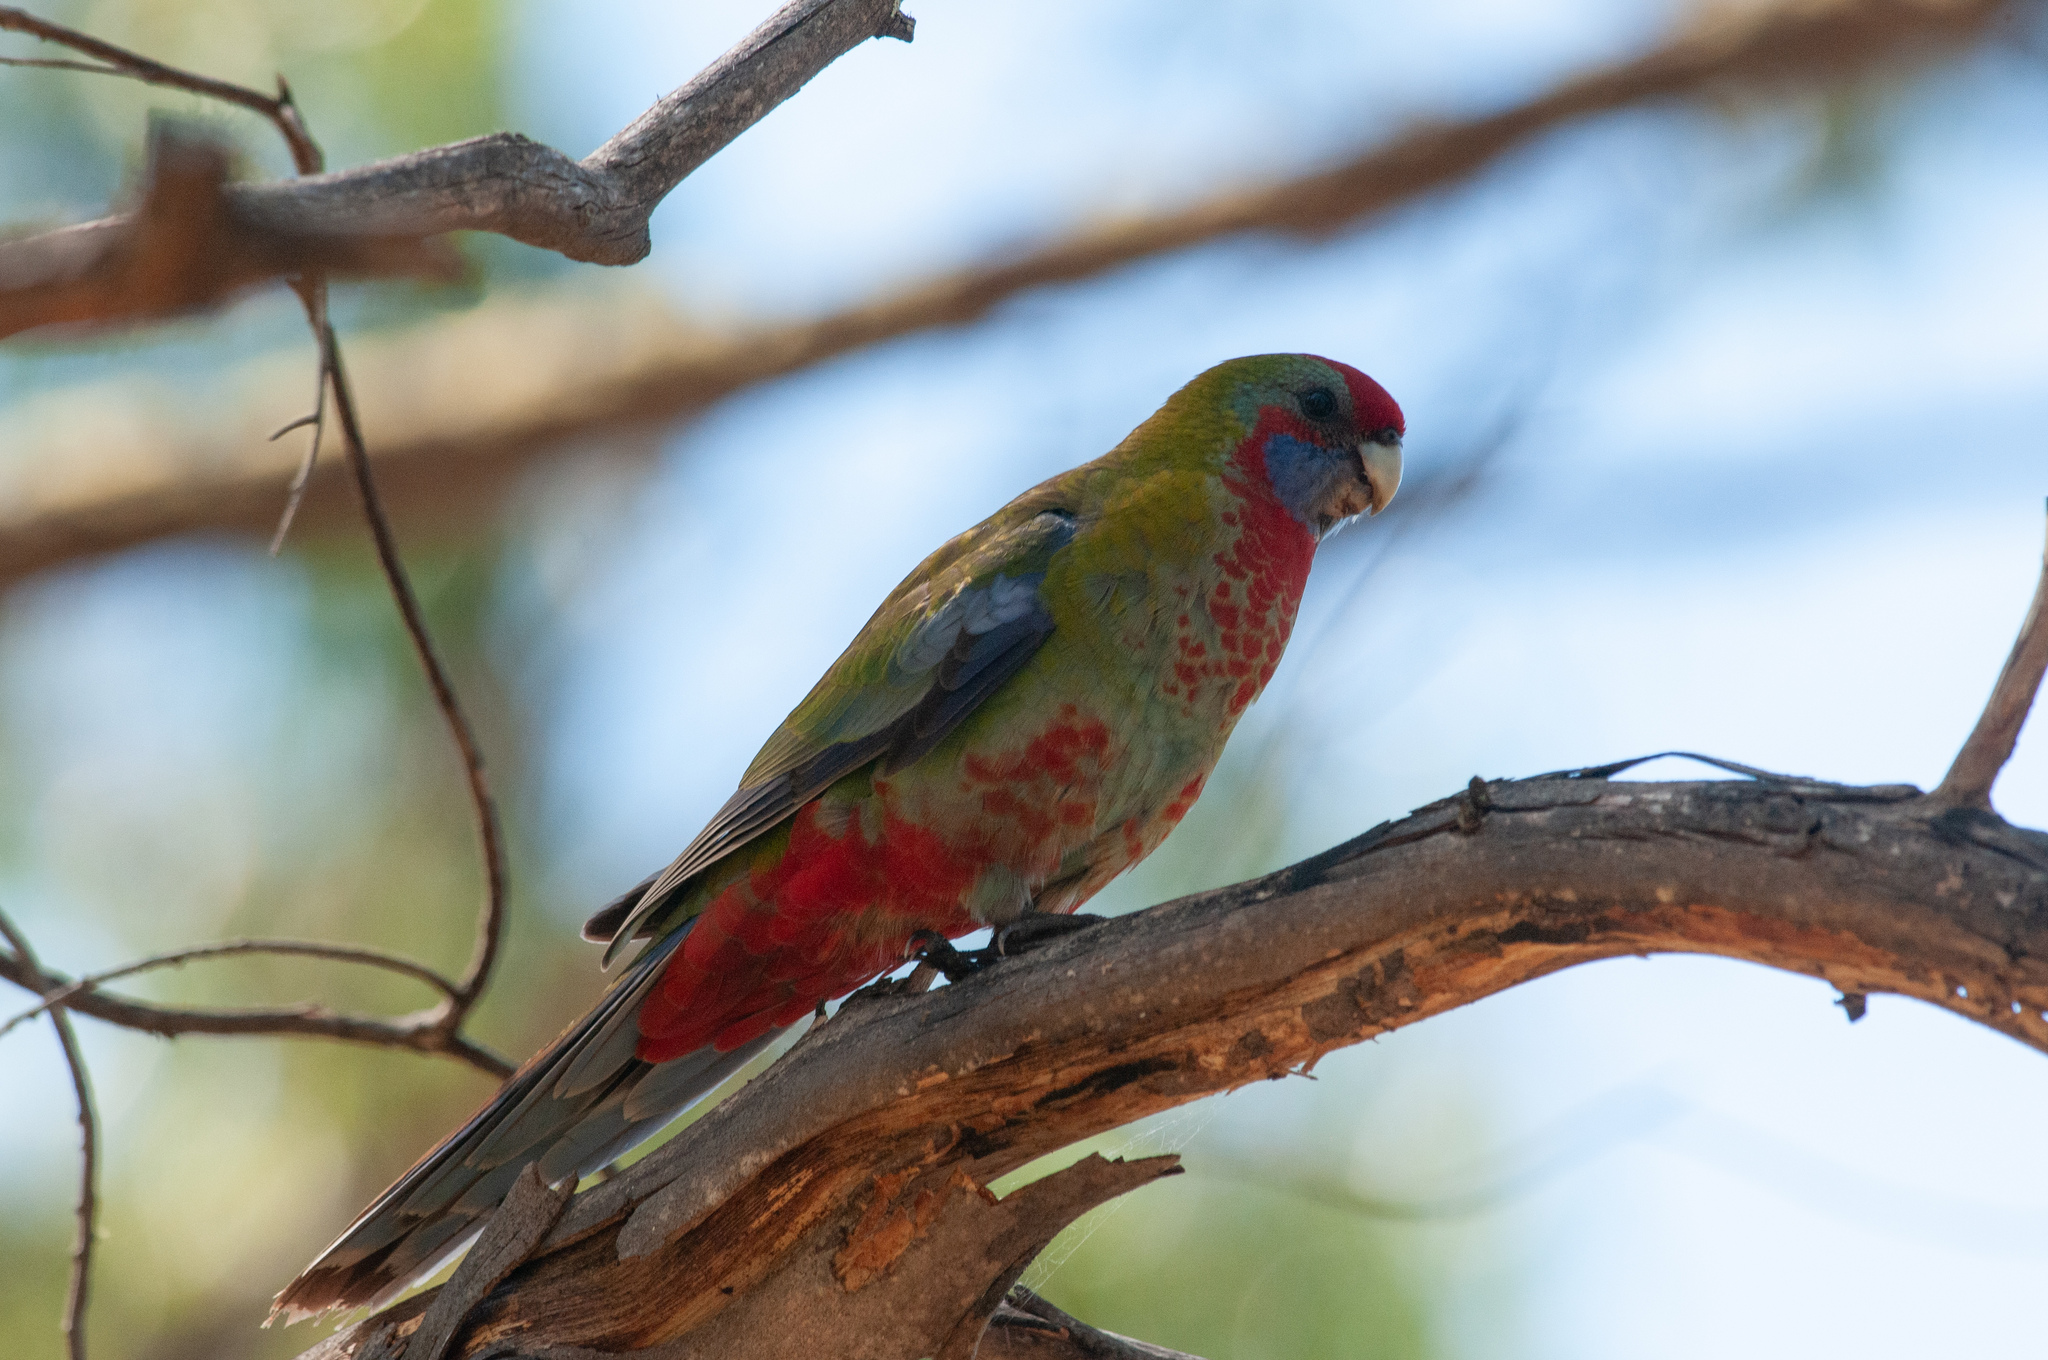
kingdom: Animalia
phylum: Chordata
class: Aves
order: Psittaciformes
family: Psittacidae
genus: Platycercus
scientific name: Platycercus elegans
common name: Crimson rosella
